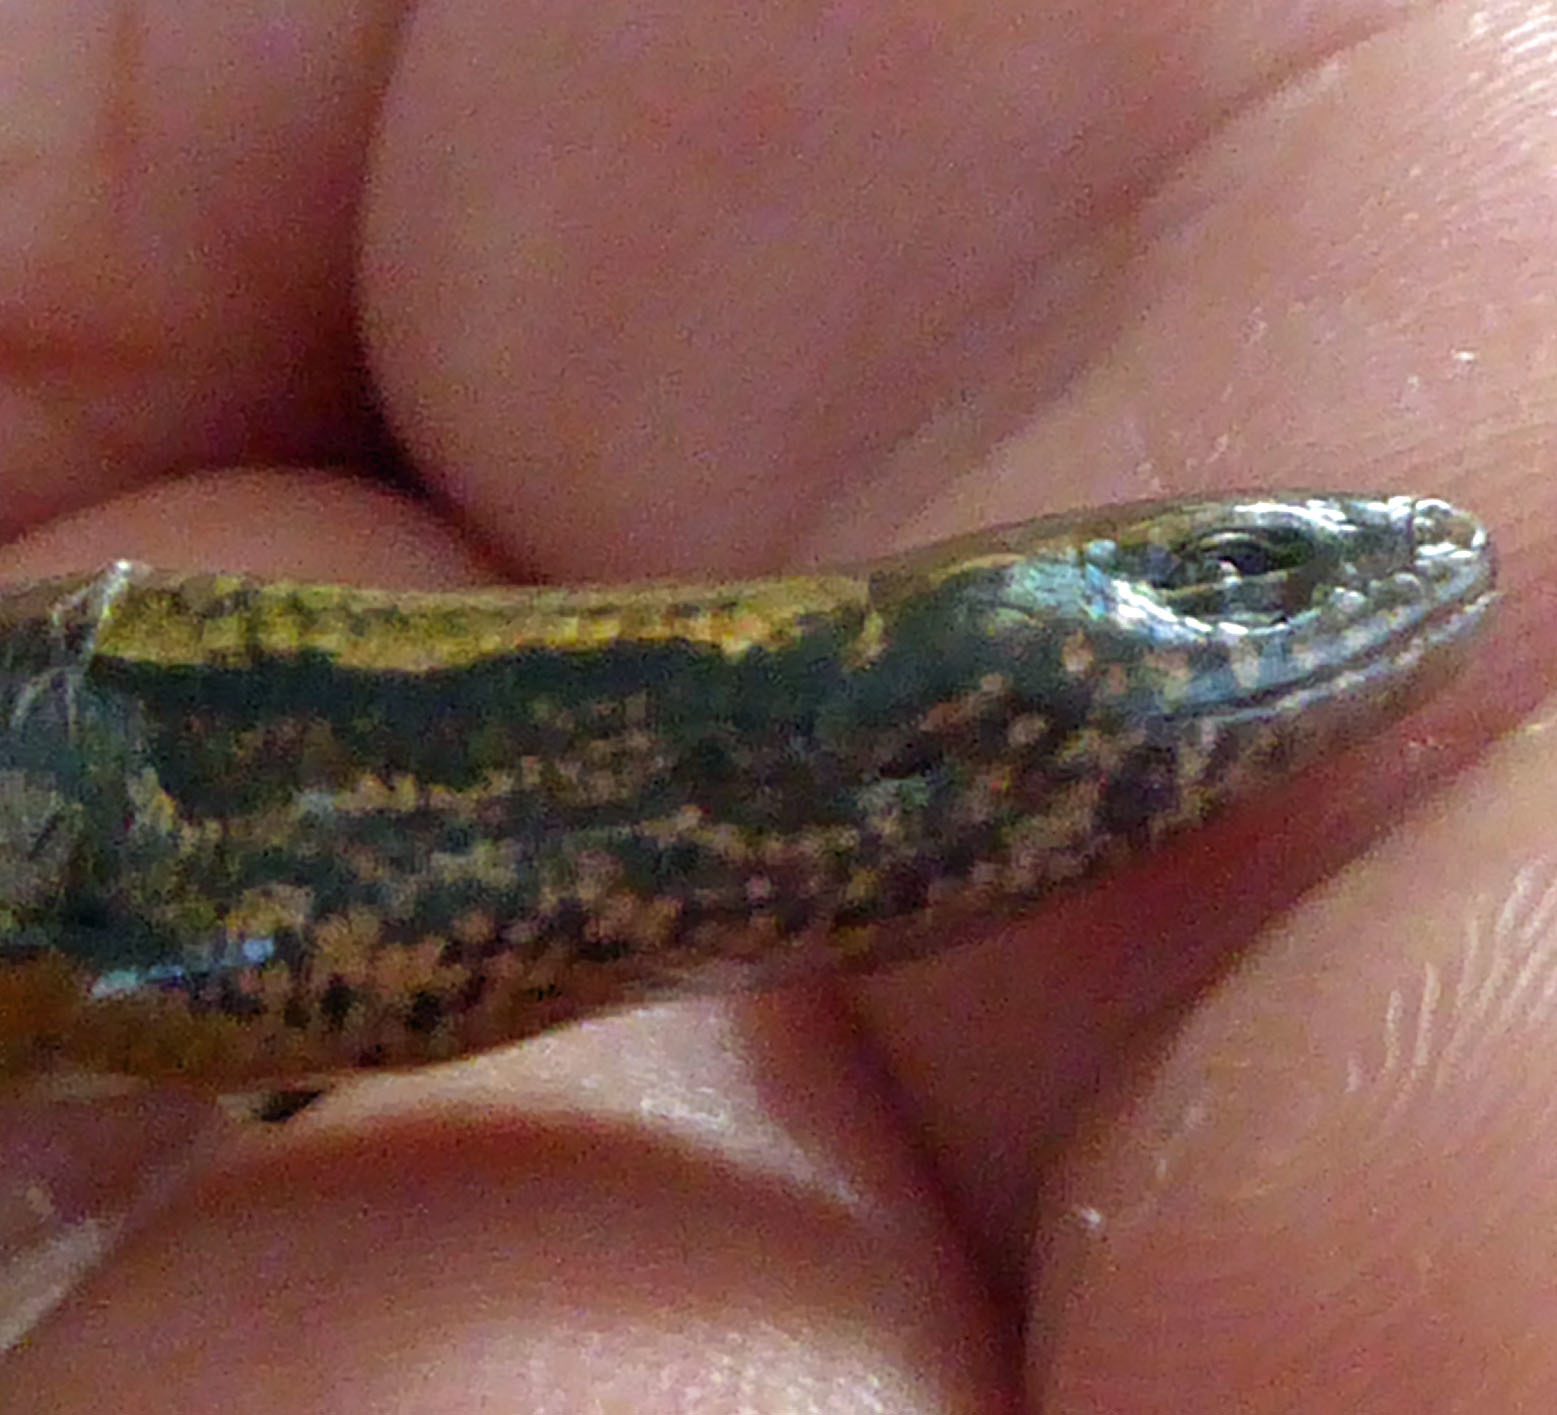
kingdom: Animalia
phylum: Chordata
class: Squamata
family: Scincidae
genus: Oligosoma
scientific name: Oligosoma aeneum
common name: Copper skink
